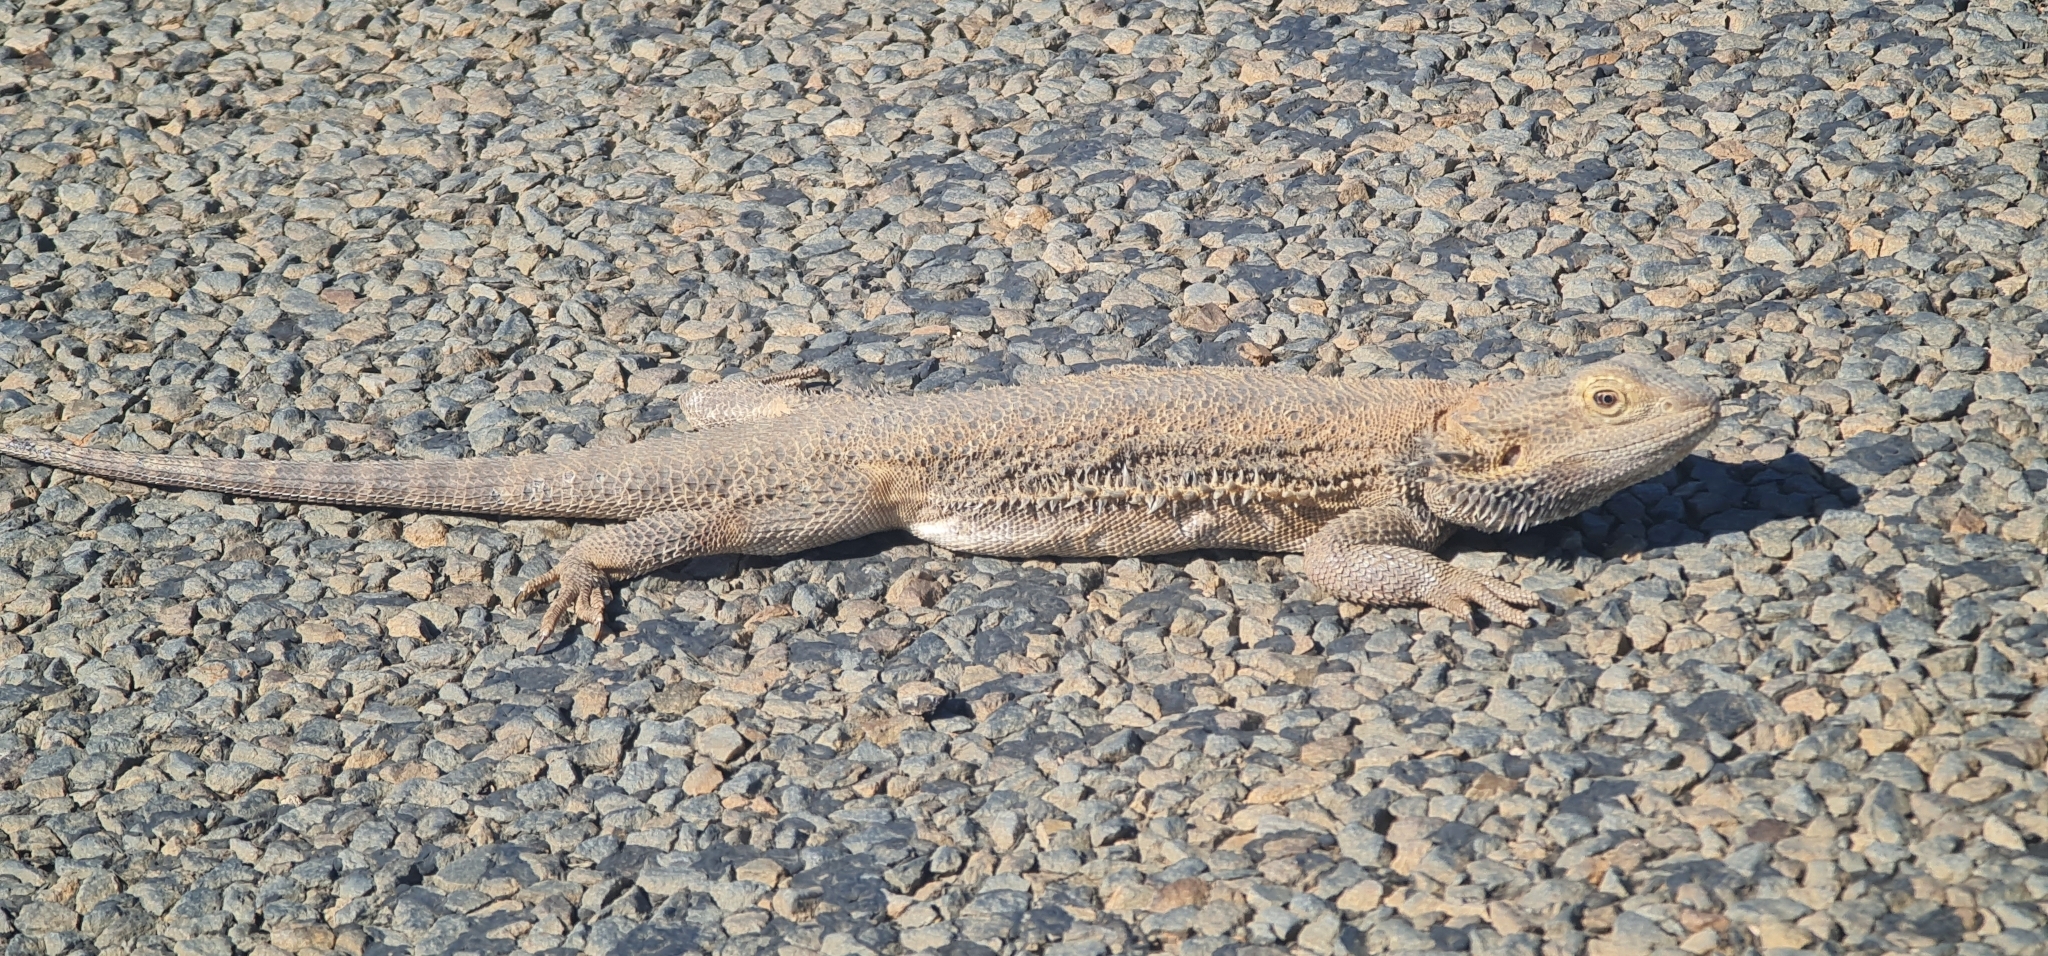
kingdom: Animalia
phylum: Chordata
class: Squamata
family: Agamidae
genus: Pogona
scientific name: Pogona vitticeps
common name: Central bearded dragon
